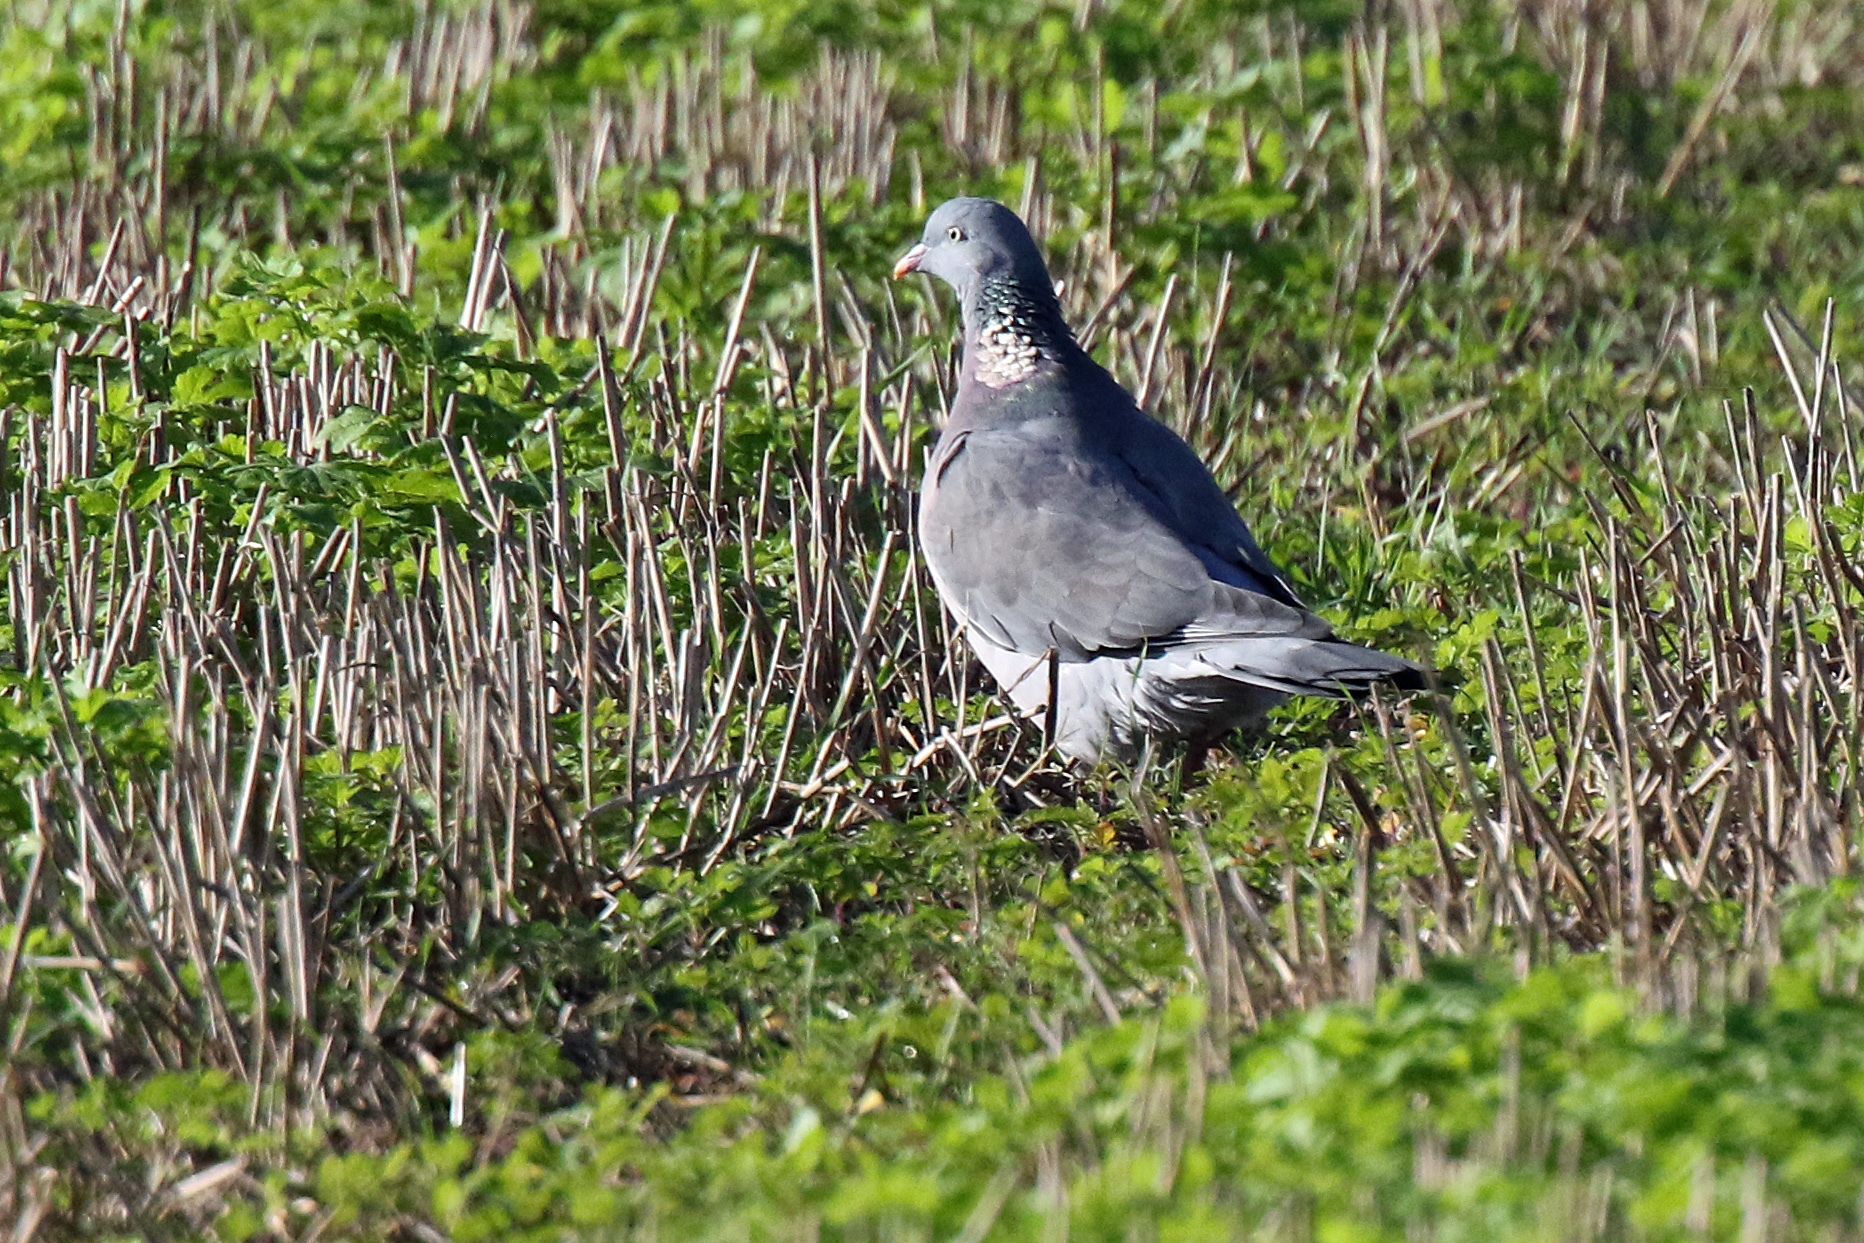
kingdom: Animalia
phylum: Chordata
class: Aves
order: Columbiformes
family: Columbidae
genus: Columba
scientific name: Columba palumbus
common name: Common wood pigeon
